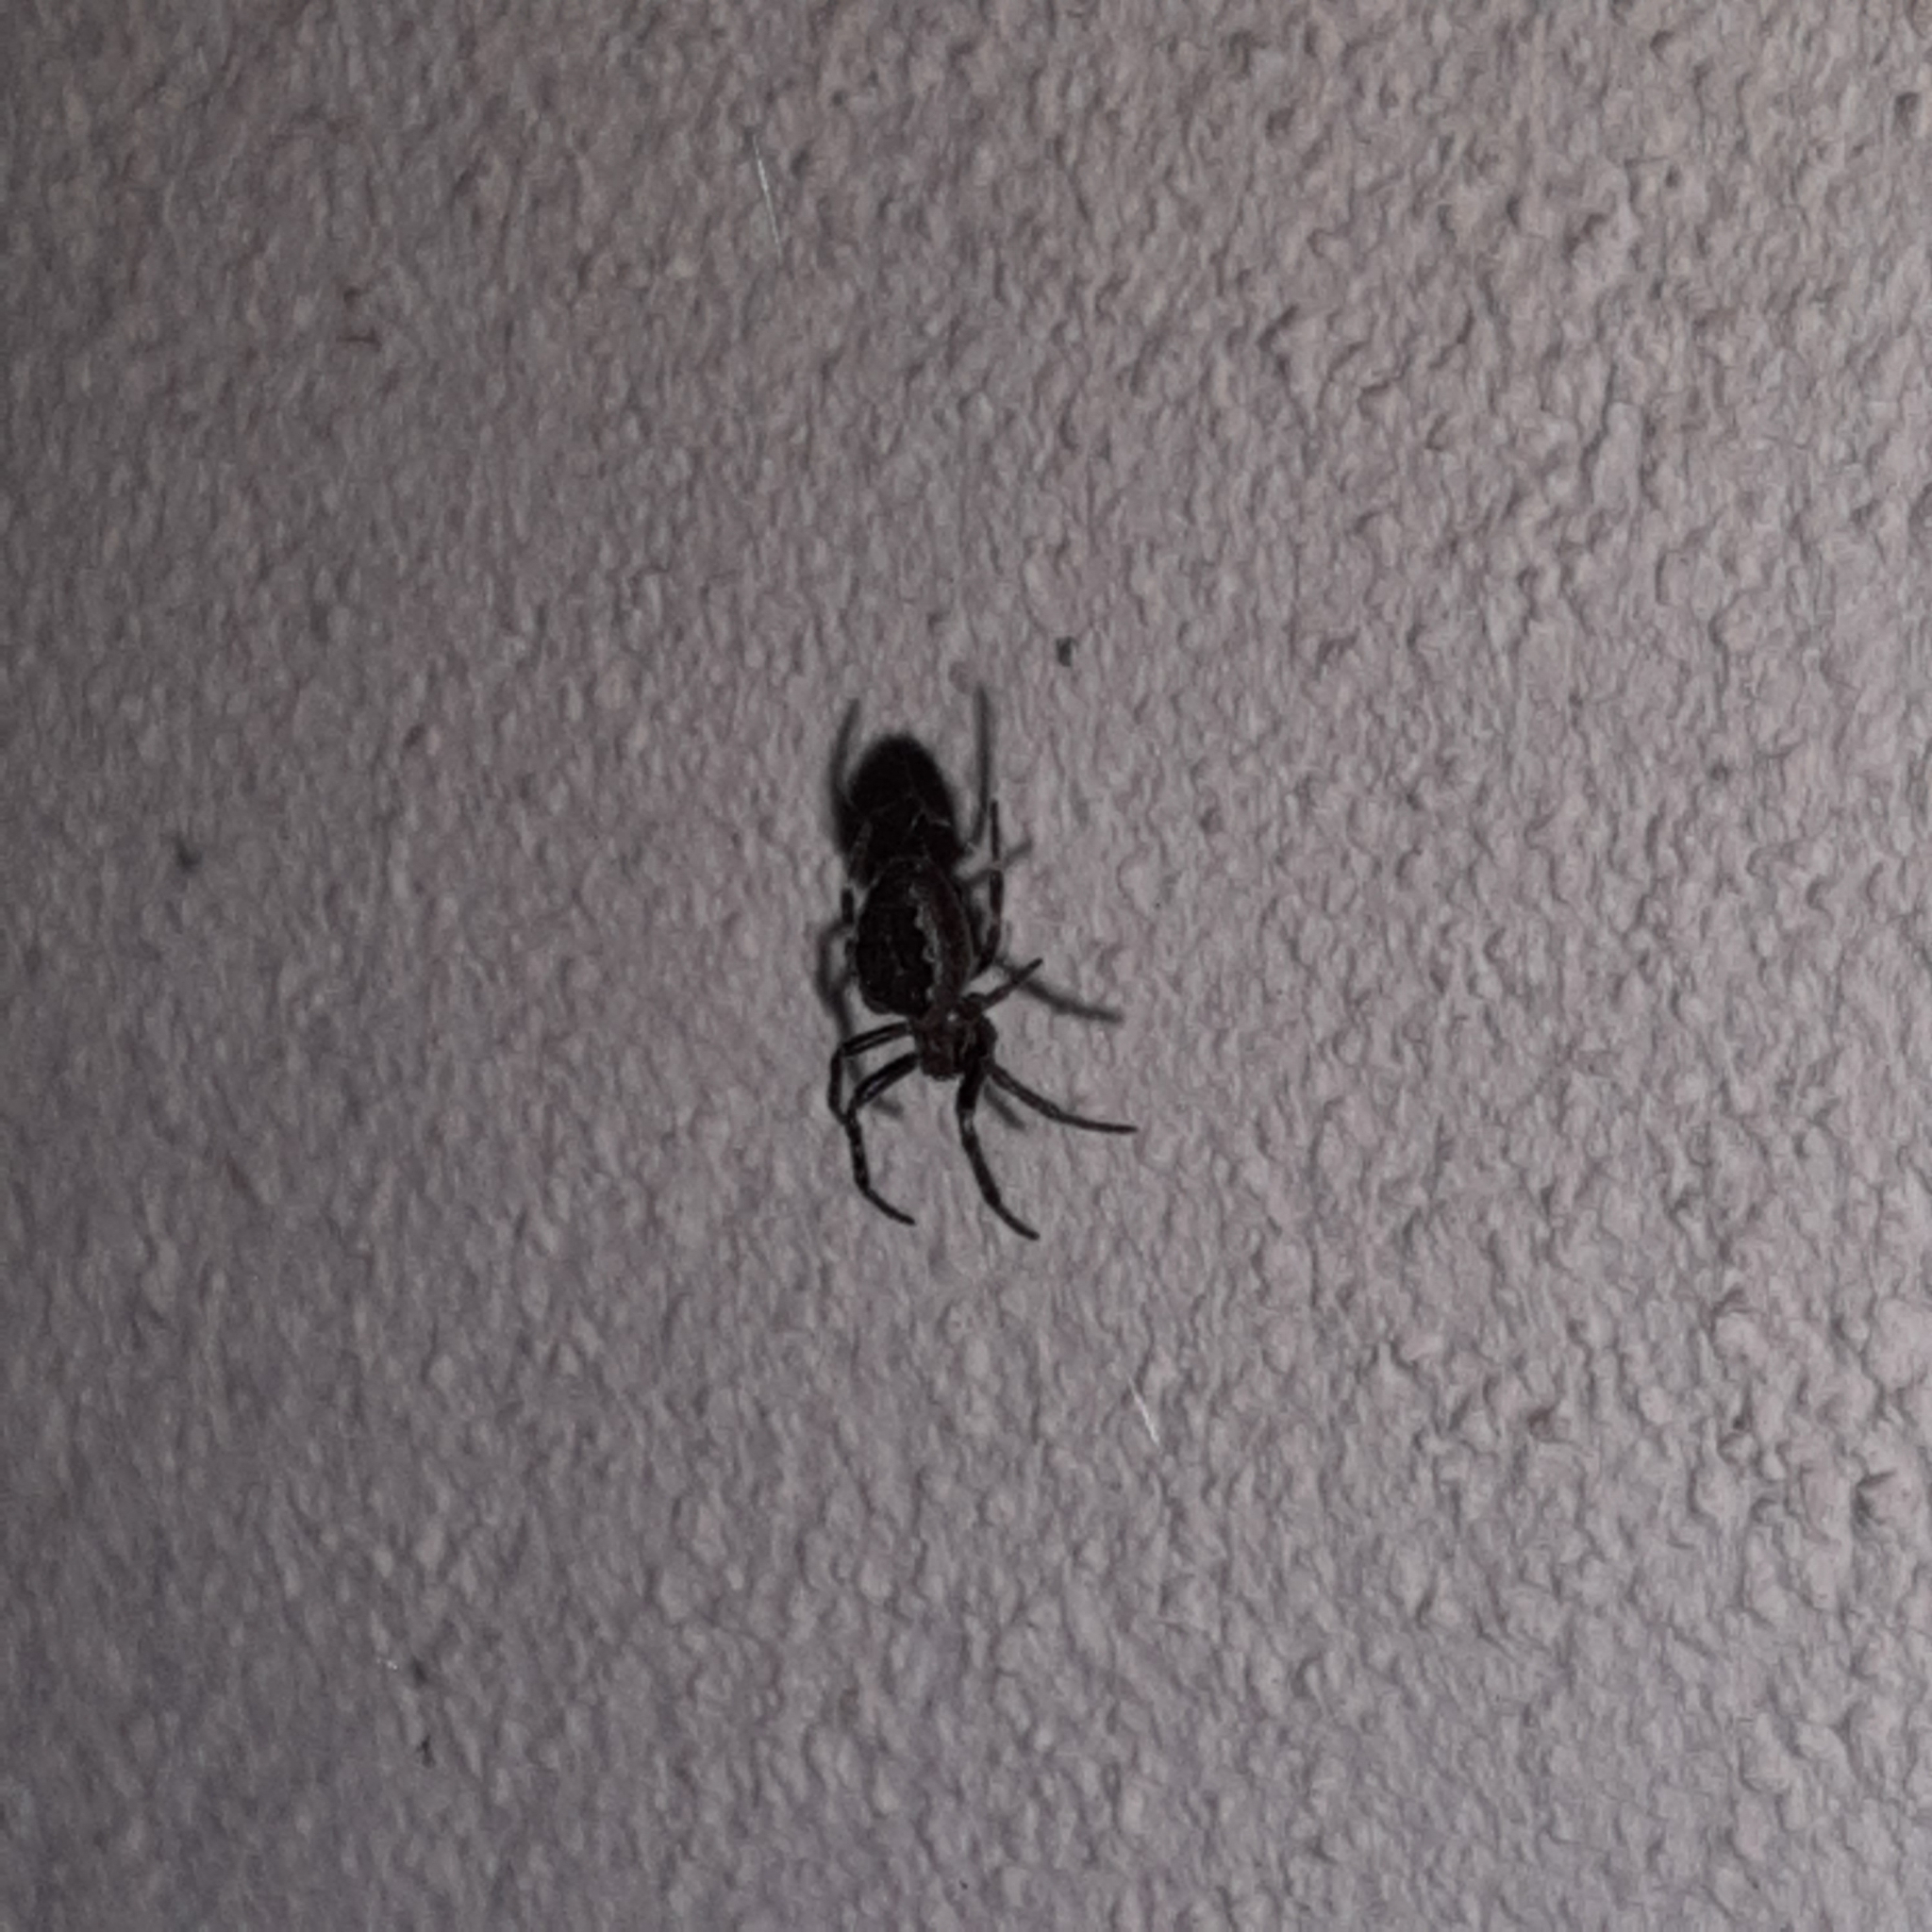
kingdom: Animalia
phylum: Arthropoda
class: Arachnida
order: Araneae
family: Araneidae
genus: Nuctenea
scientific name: Nuctenea umbratica
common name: Toad spider
